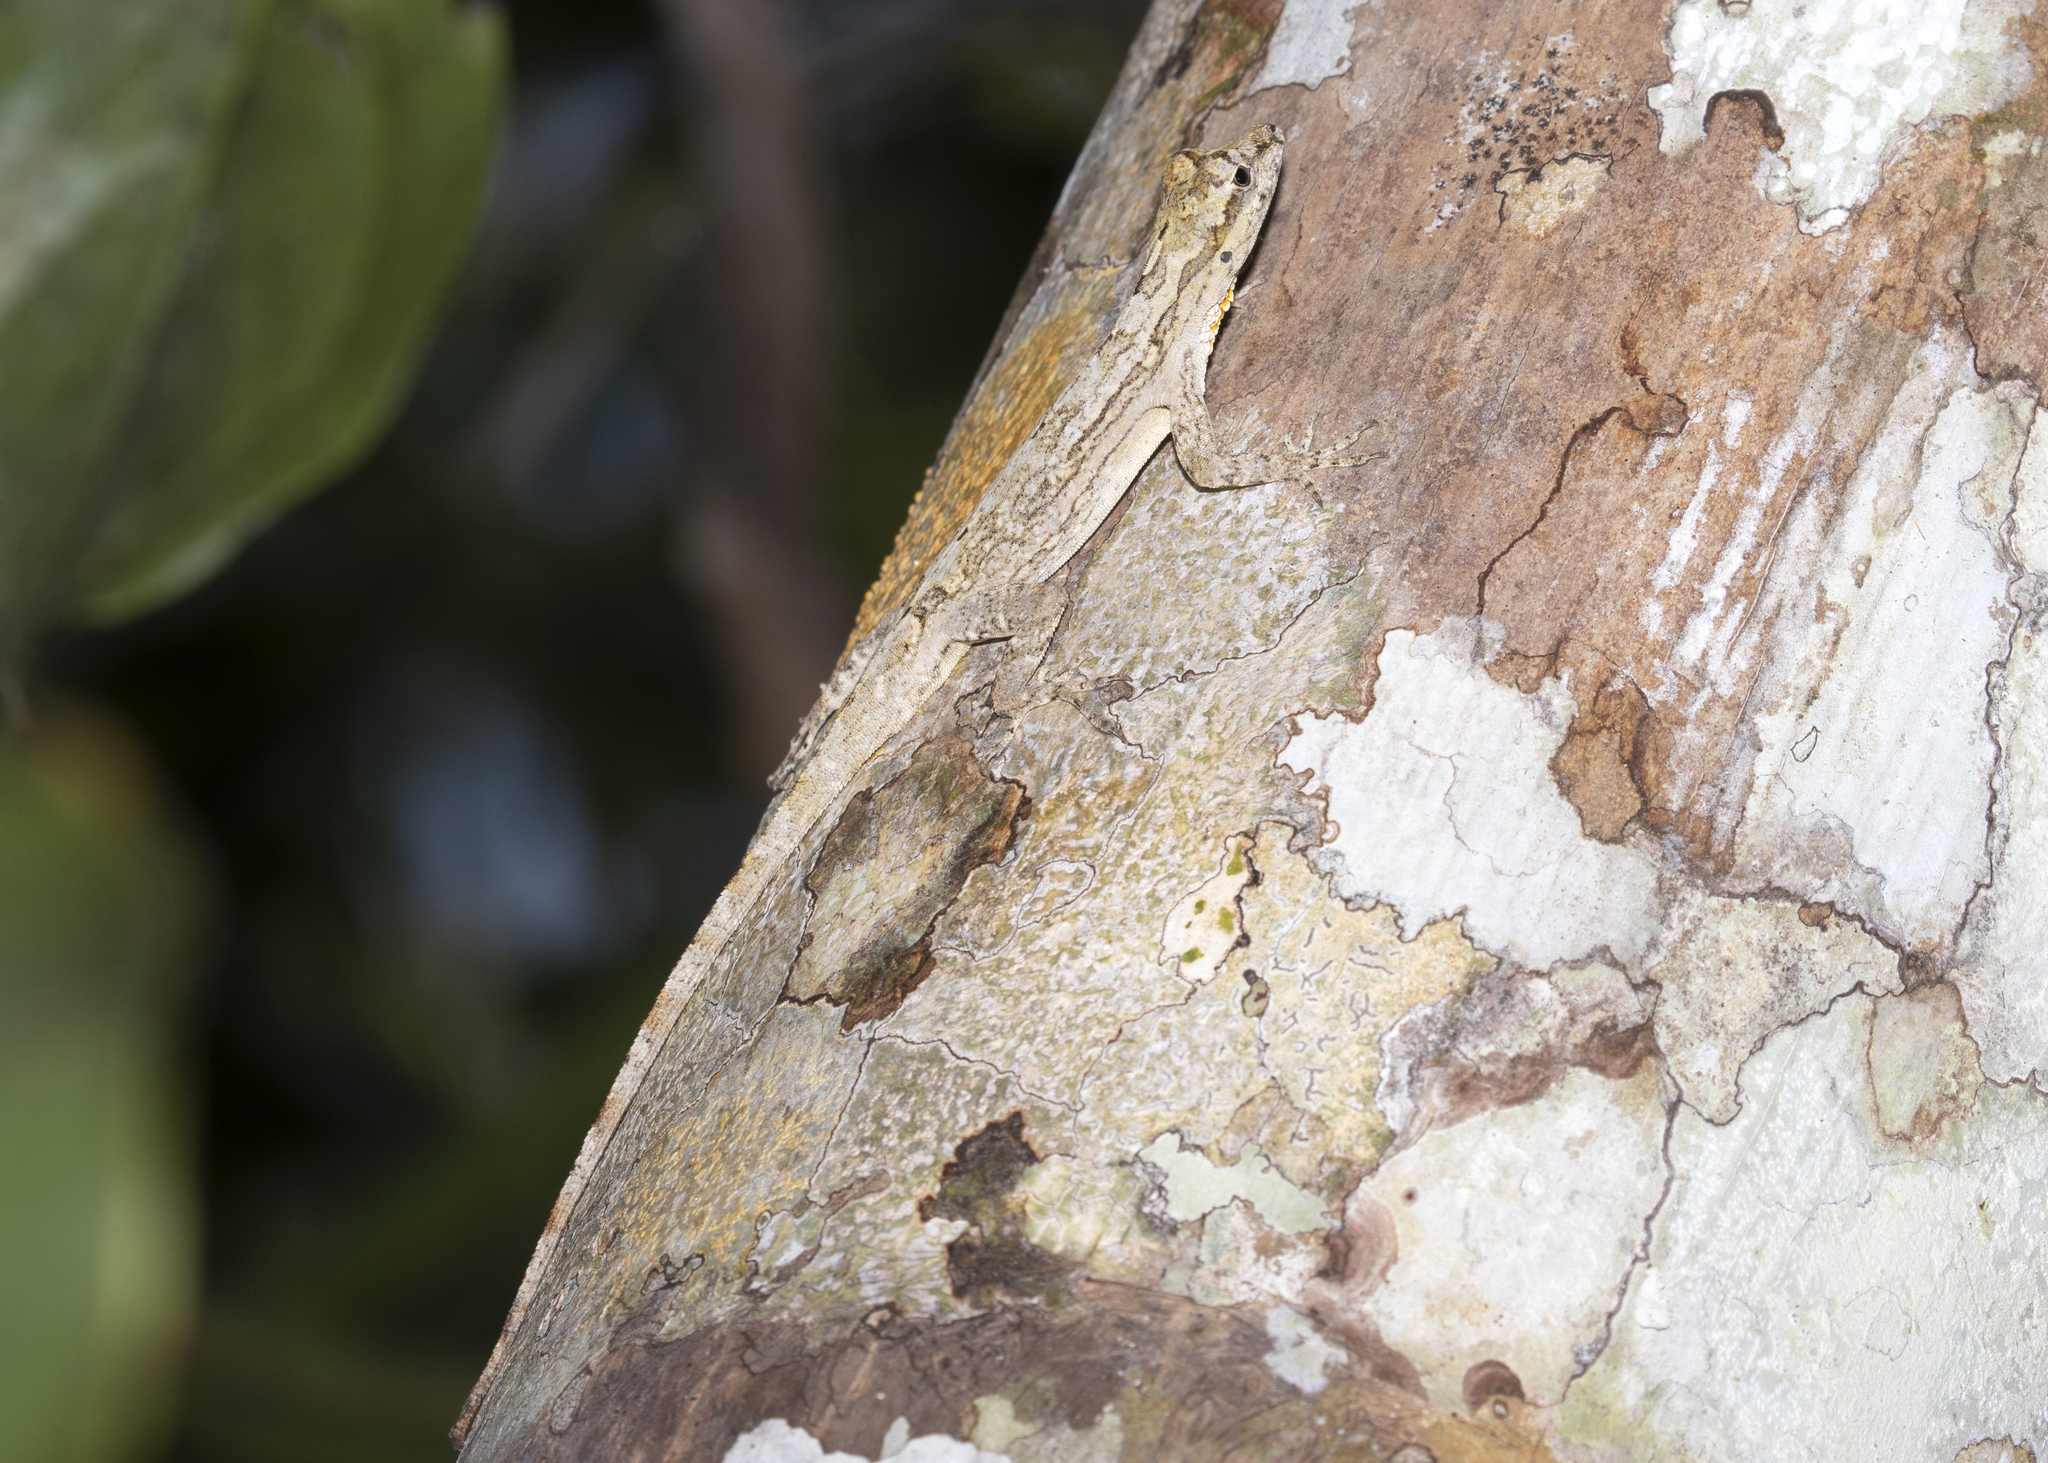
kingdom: Animalia
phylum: Chordata
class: Squamata
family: Dactyloidae
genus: Anolis
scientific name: Anolis ortonii
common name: Bark anole
